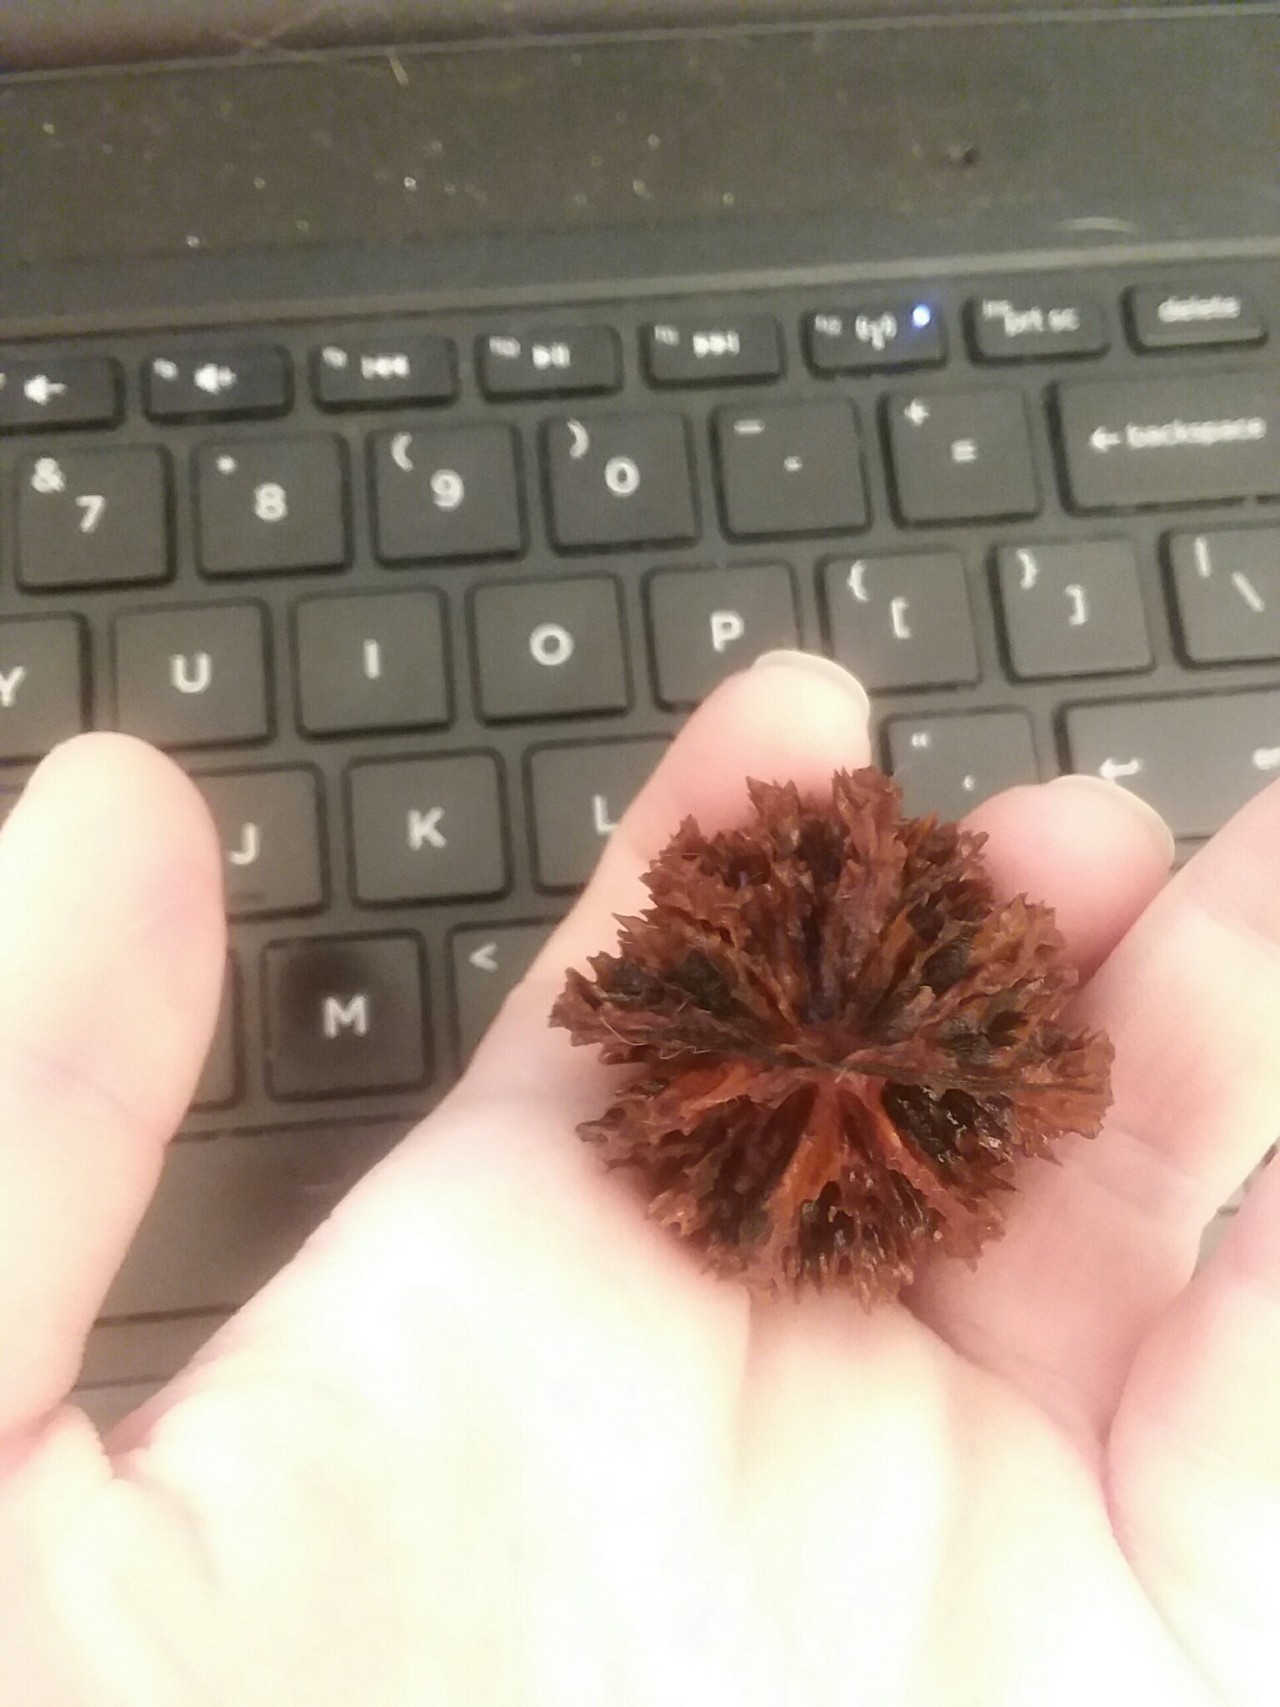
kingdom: Plantae
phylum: Tracheophyta
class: Magnoliopsida
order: Fagales
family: Juglandaceae
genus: Juglans
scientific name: Juglans cinerea
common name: Butternut
